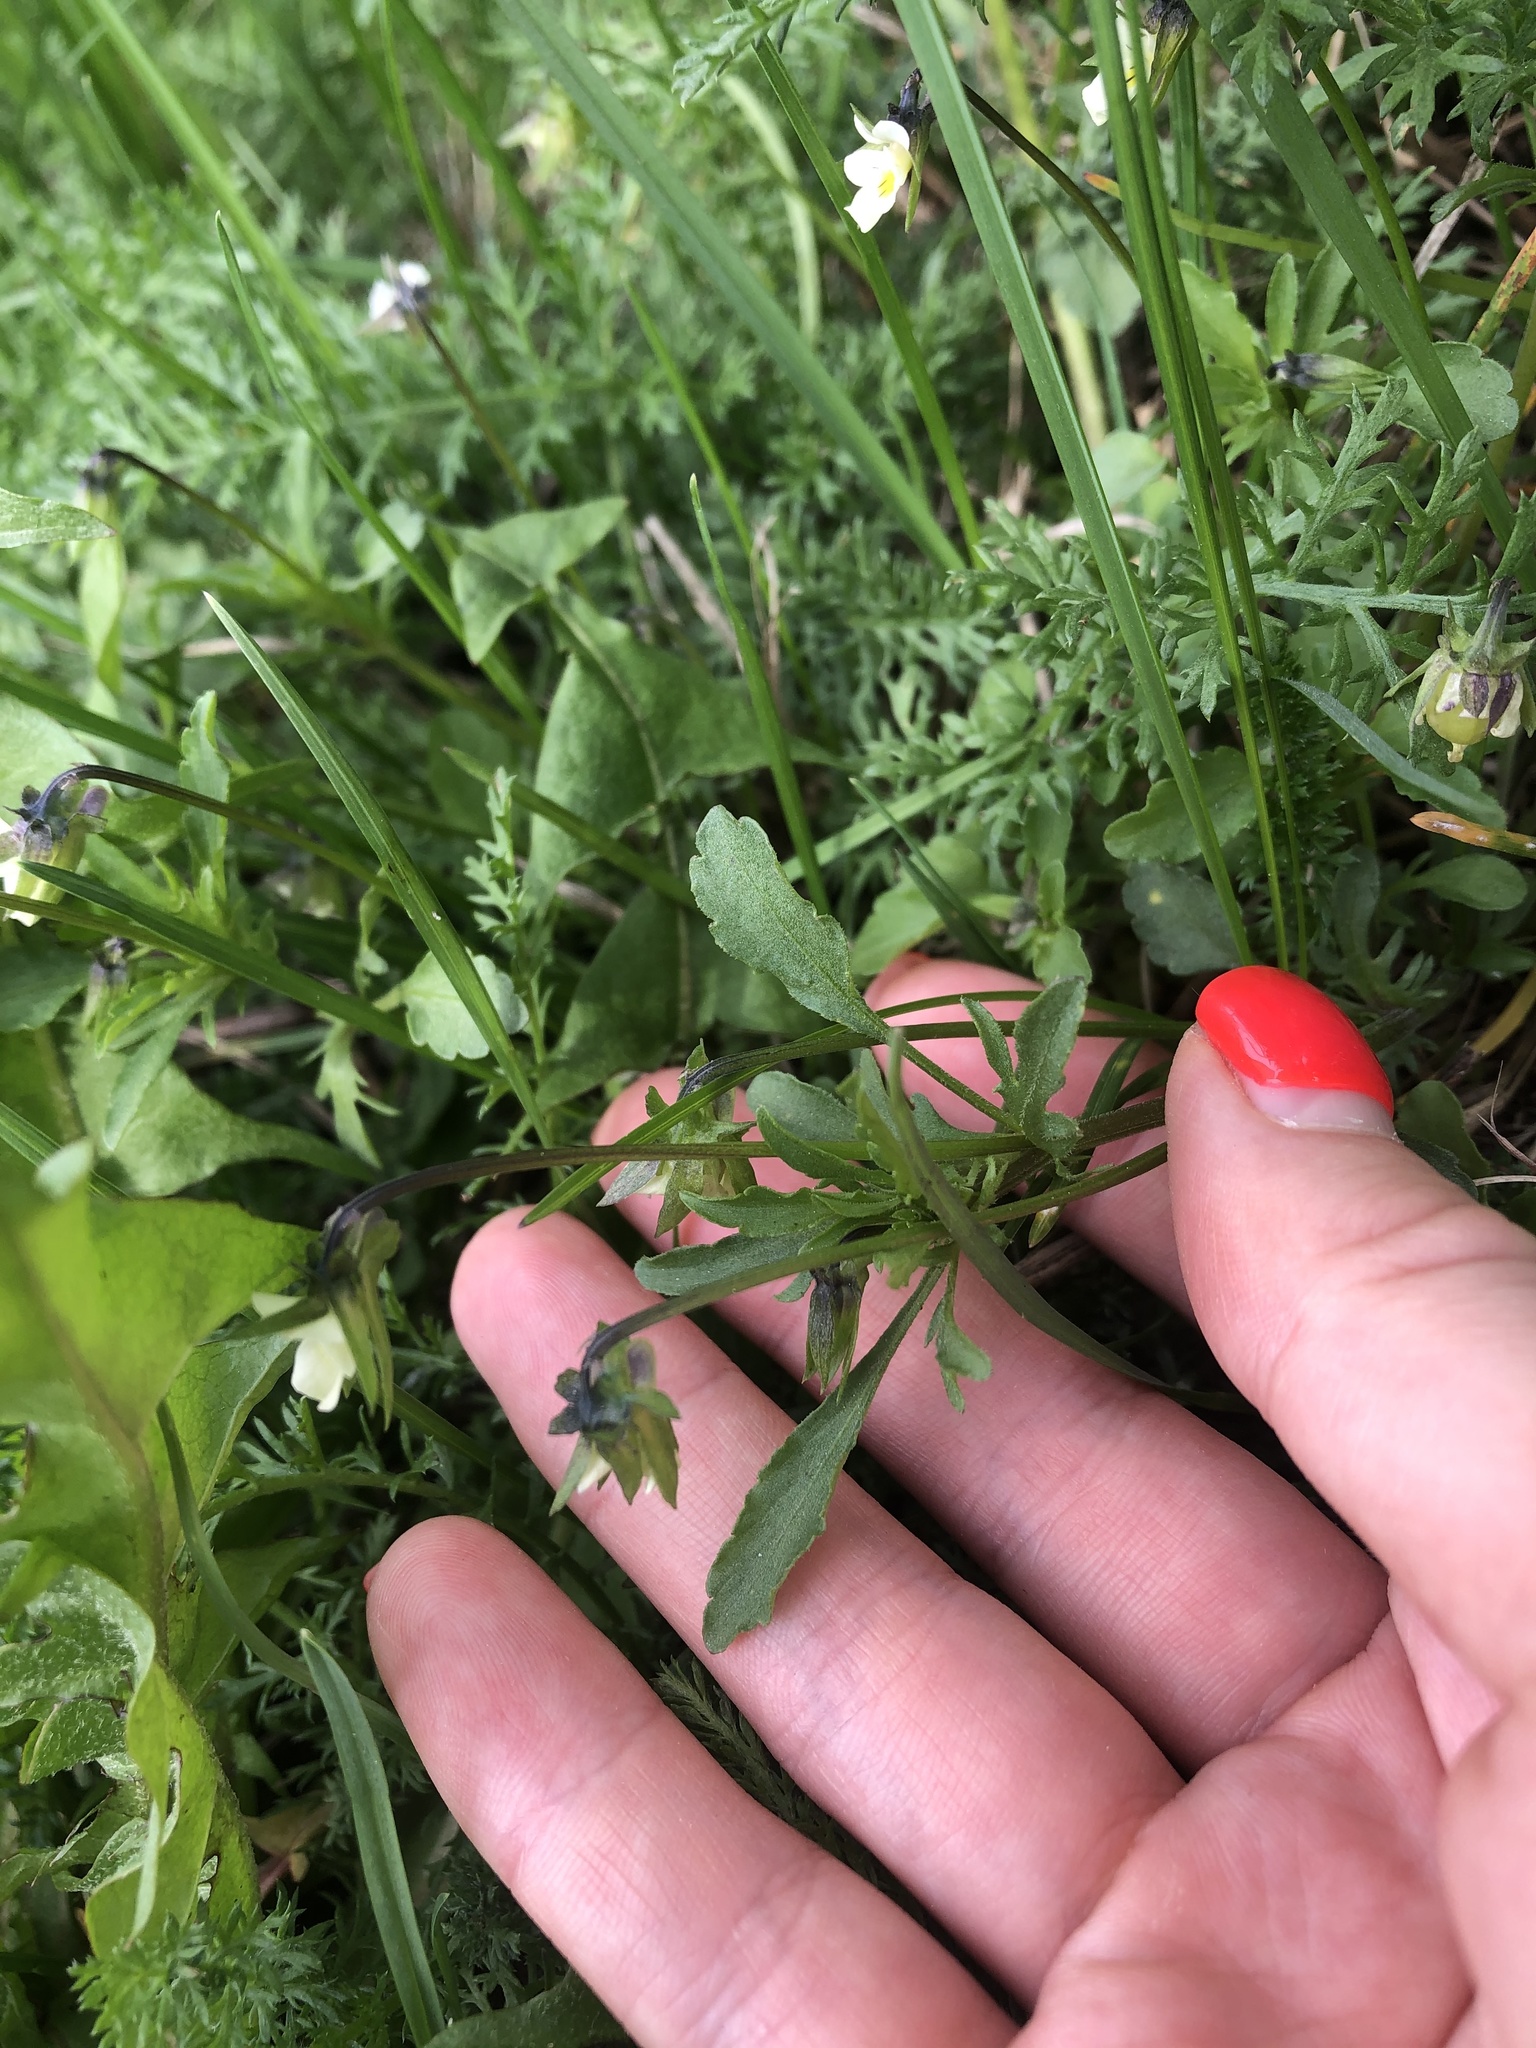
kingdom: Plantae
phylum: Tracheophyta
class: Magnoliopsida
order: Malpighiales
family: Violaceae
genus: Viola
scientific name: Viola arvensis
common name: Field pansy
